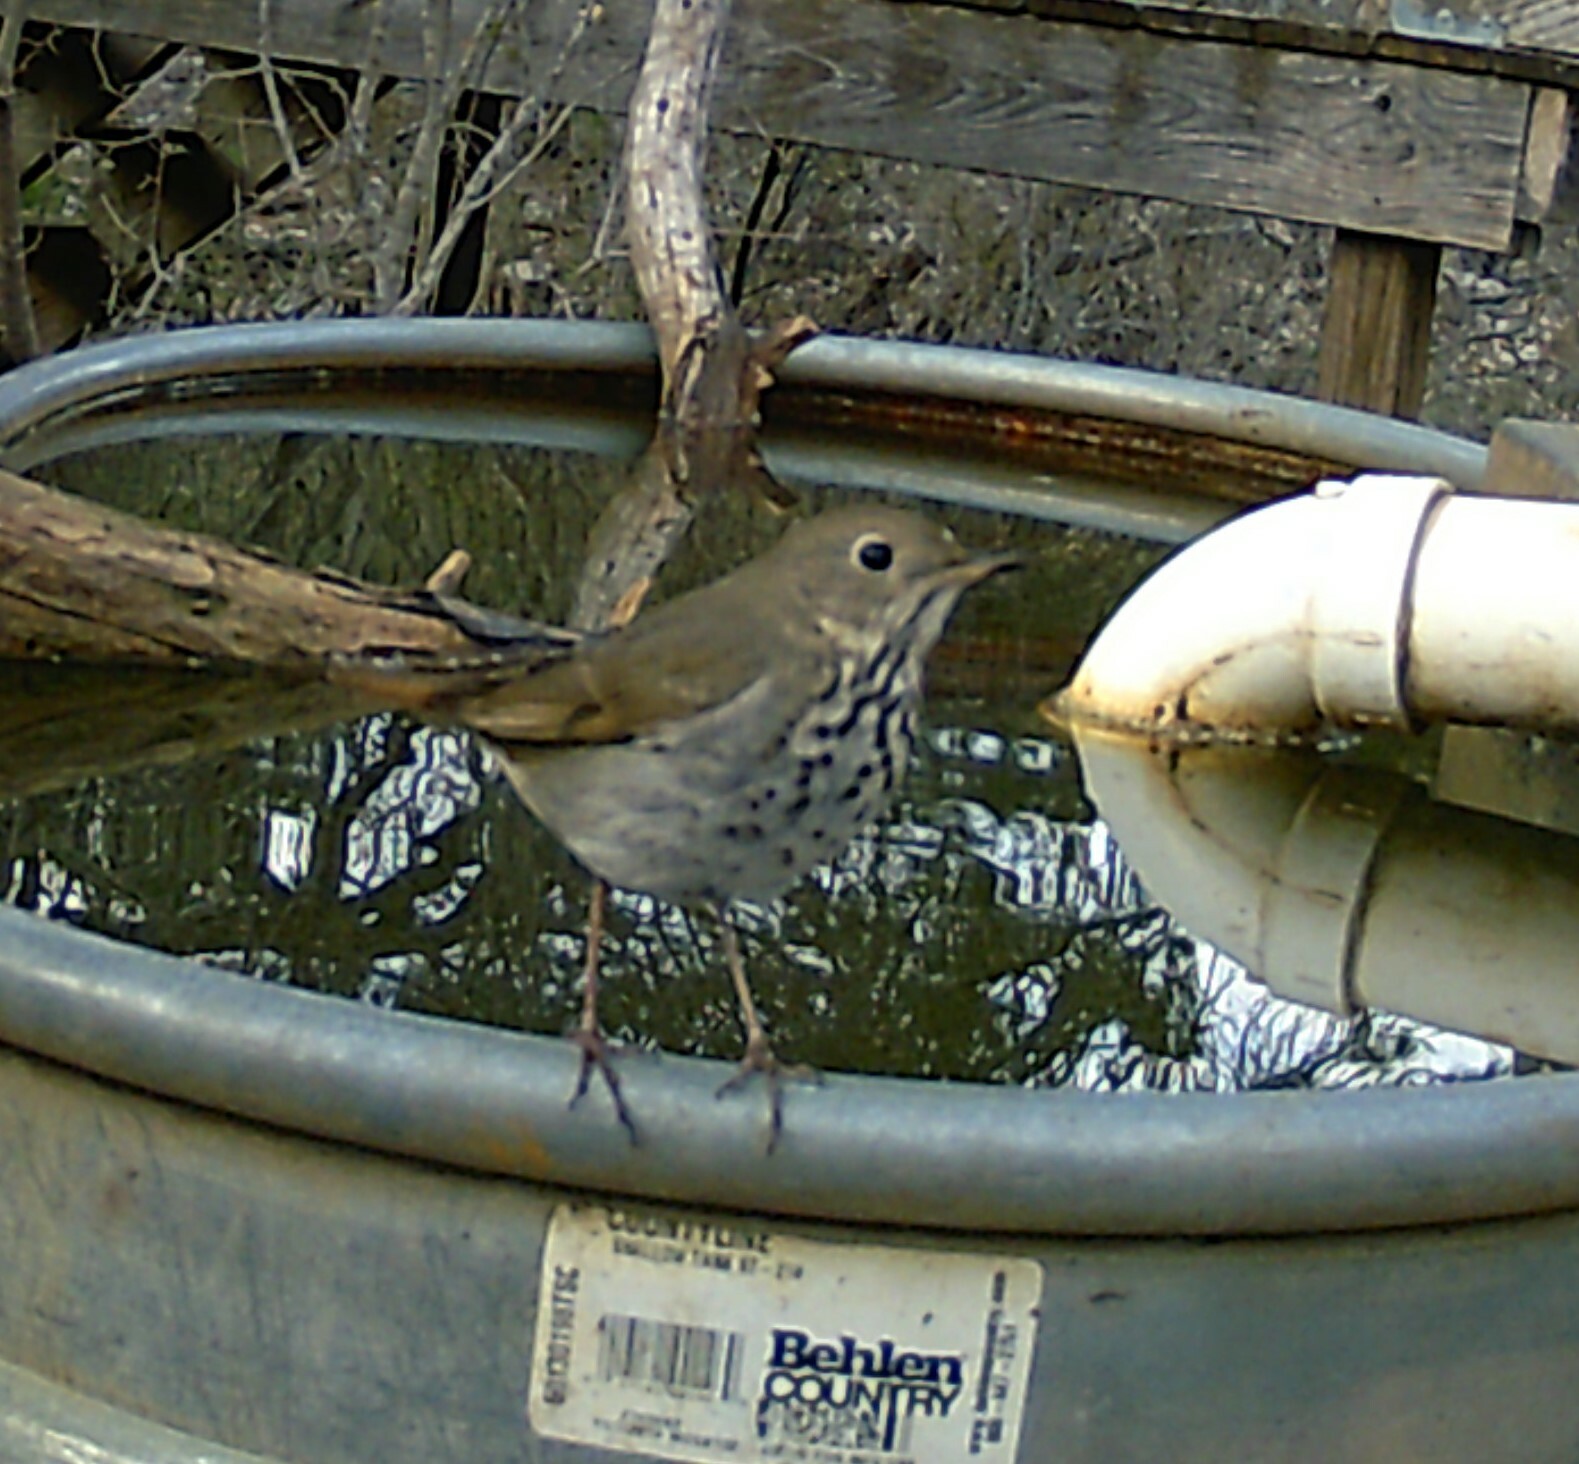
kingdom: Animalia
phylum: Chordata
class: Aves
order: Passeriformes
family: Turdidae
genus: Catharus
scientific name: Catharus guttatus
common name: Hermit thrush
